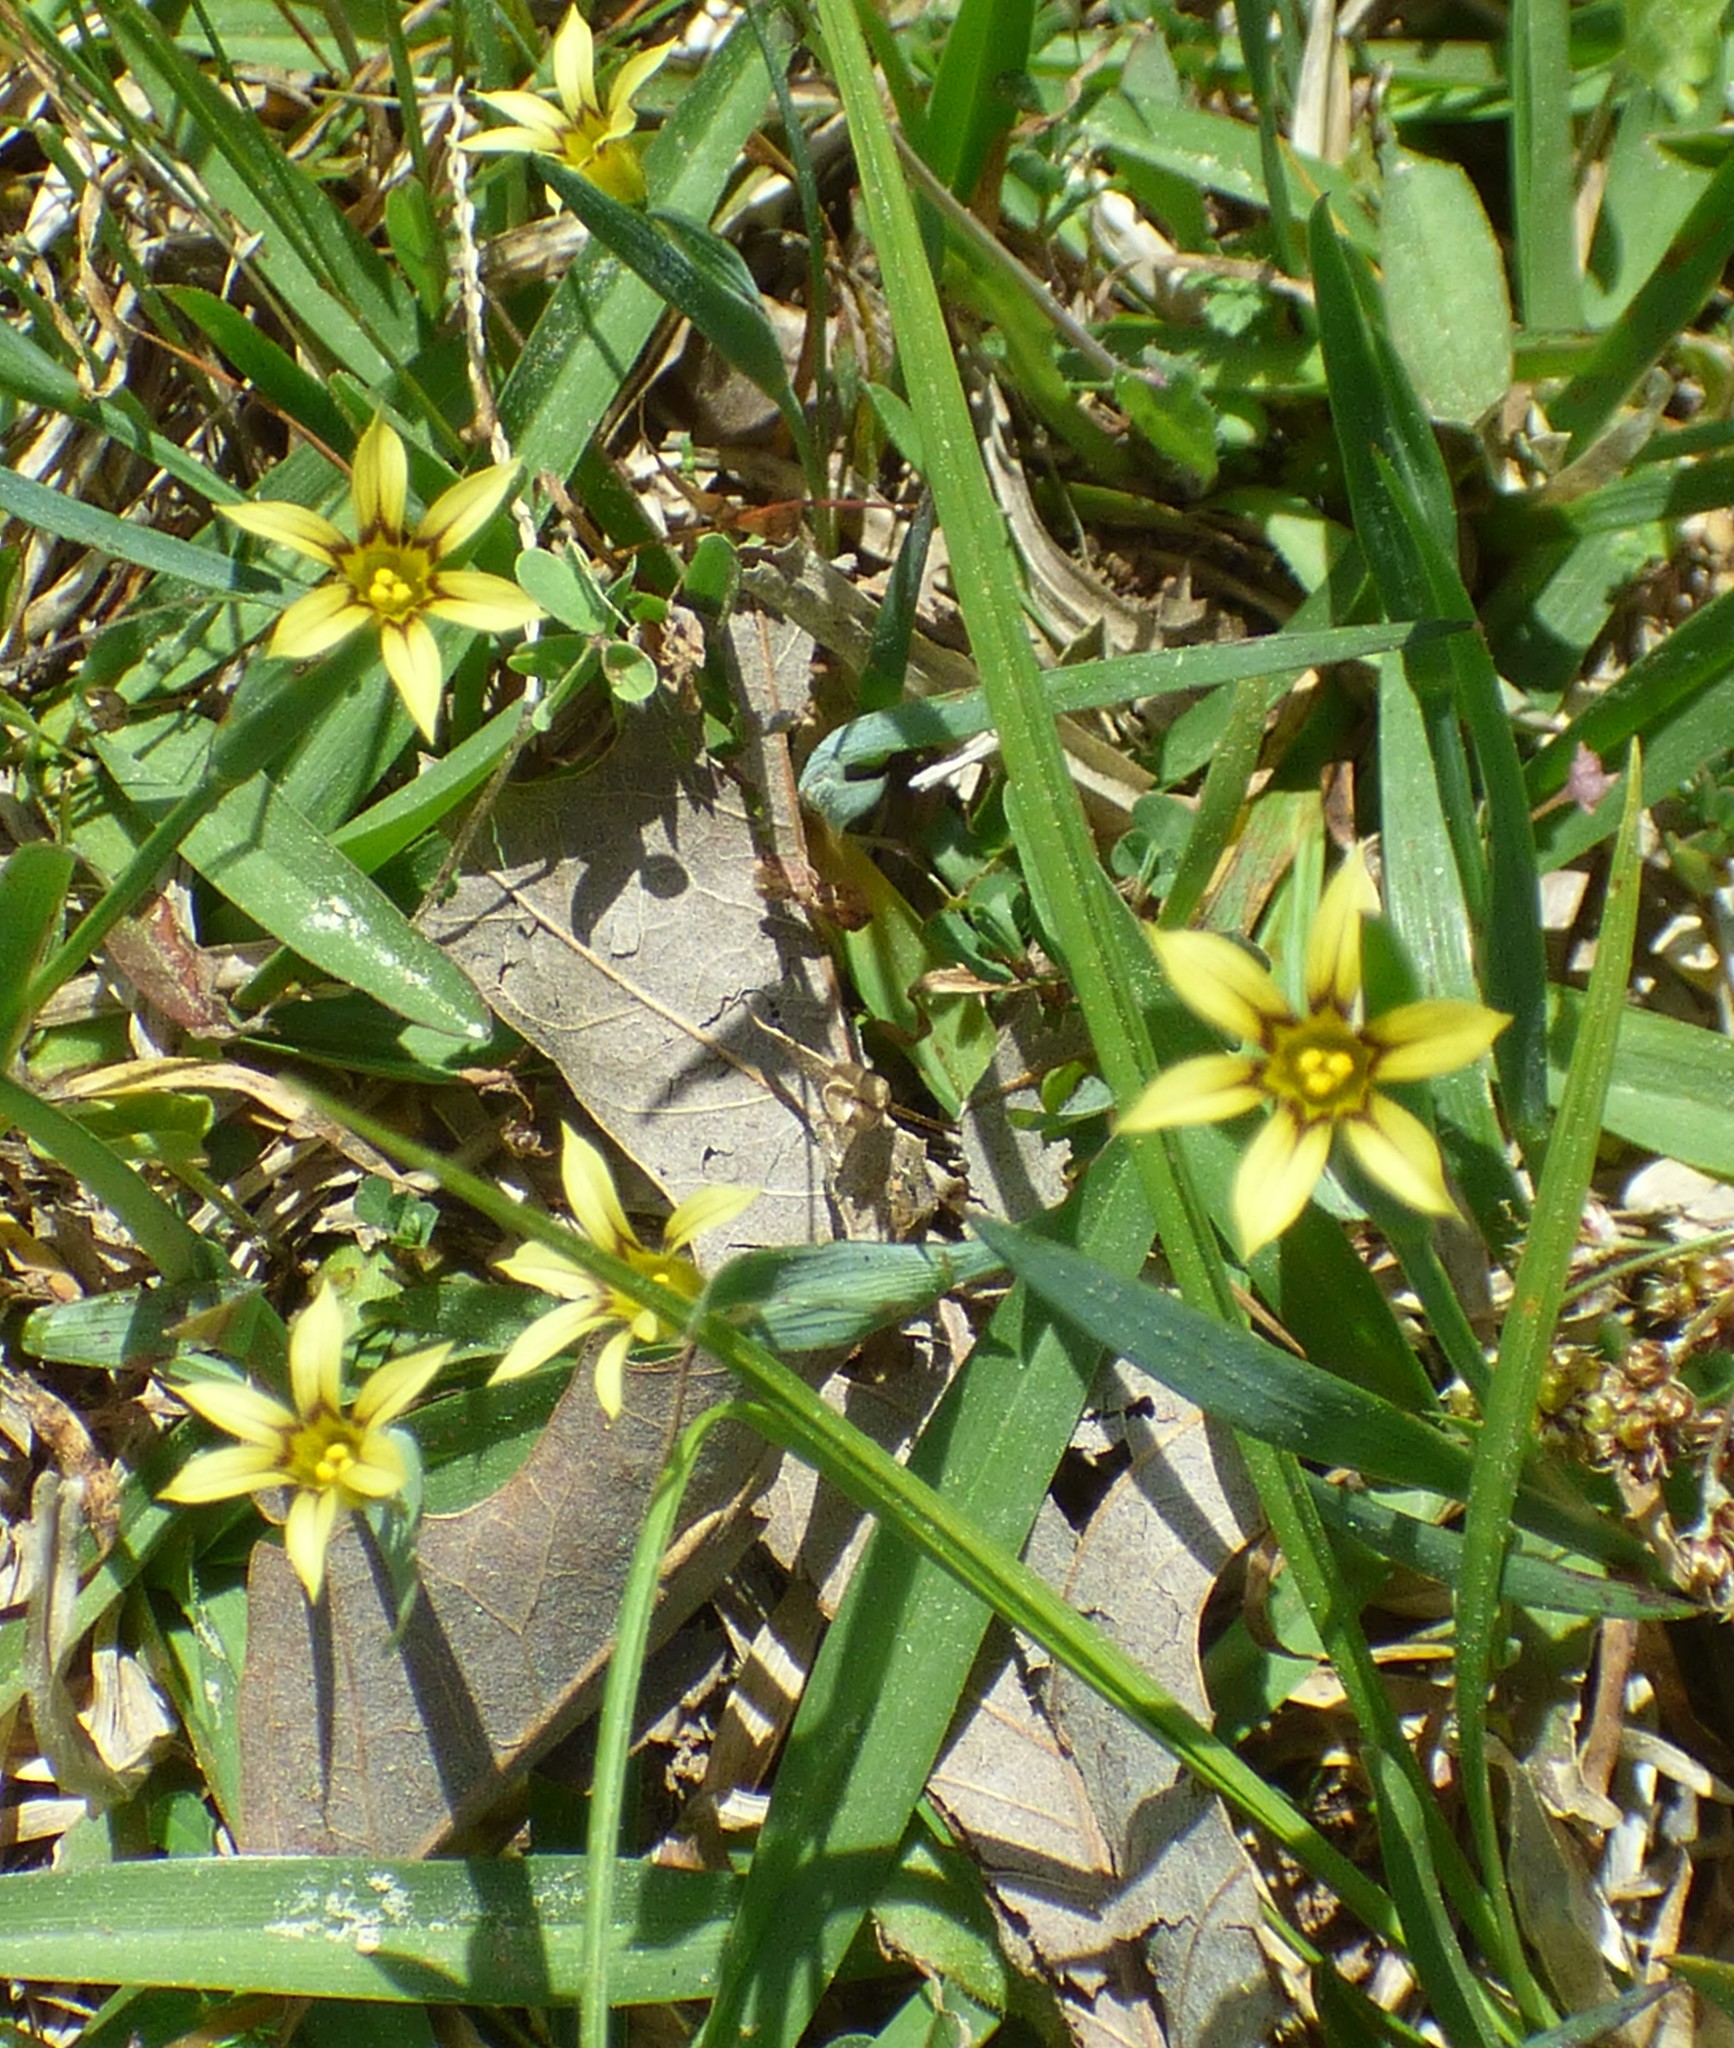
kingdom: Plantae
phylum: Tracheophyta
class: Liliopsida
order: Asparagales
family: Iridaceae
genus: Sisyrinchium
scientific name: Sisyrinchium micranthum
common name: Bermuda pigroot
